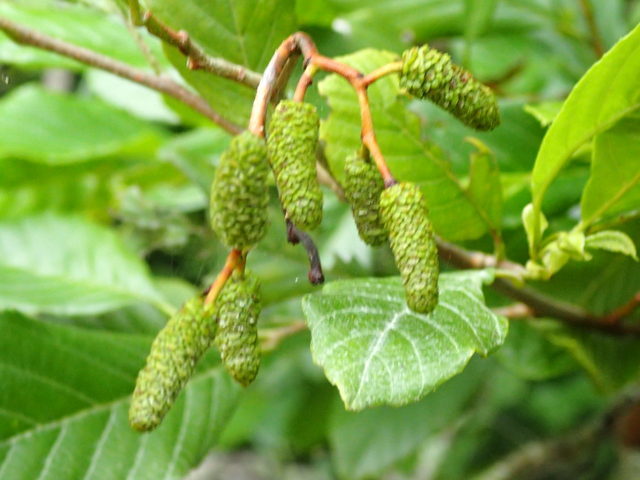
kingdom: Plantae
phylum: Tracheophyta
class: Magnoliopsida
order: Fagales
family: Betulaceae
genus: Alnus
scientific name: Alnus serrulata
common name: Hazel alder
